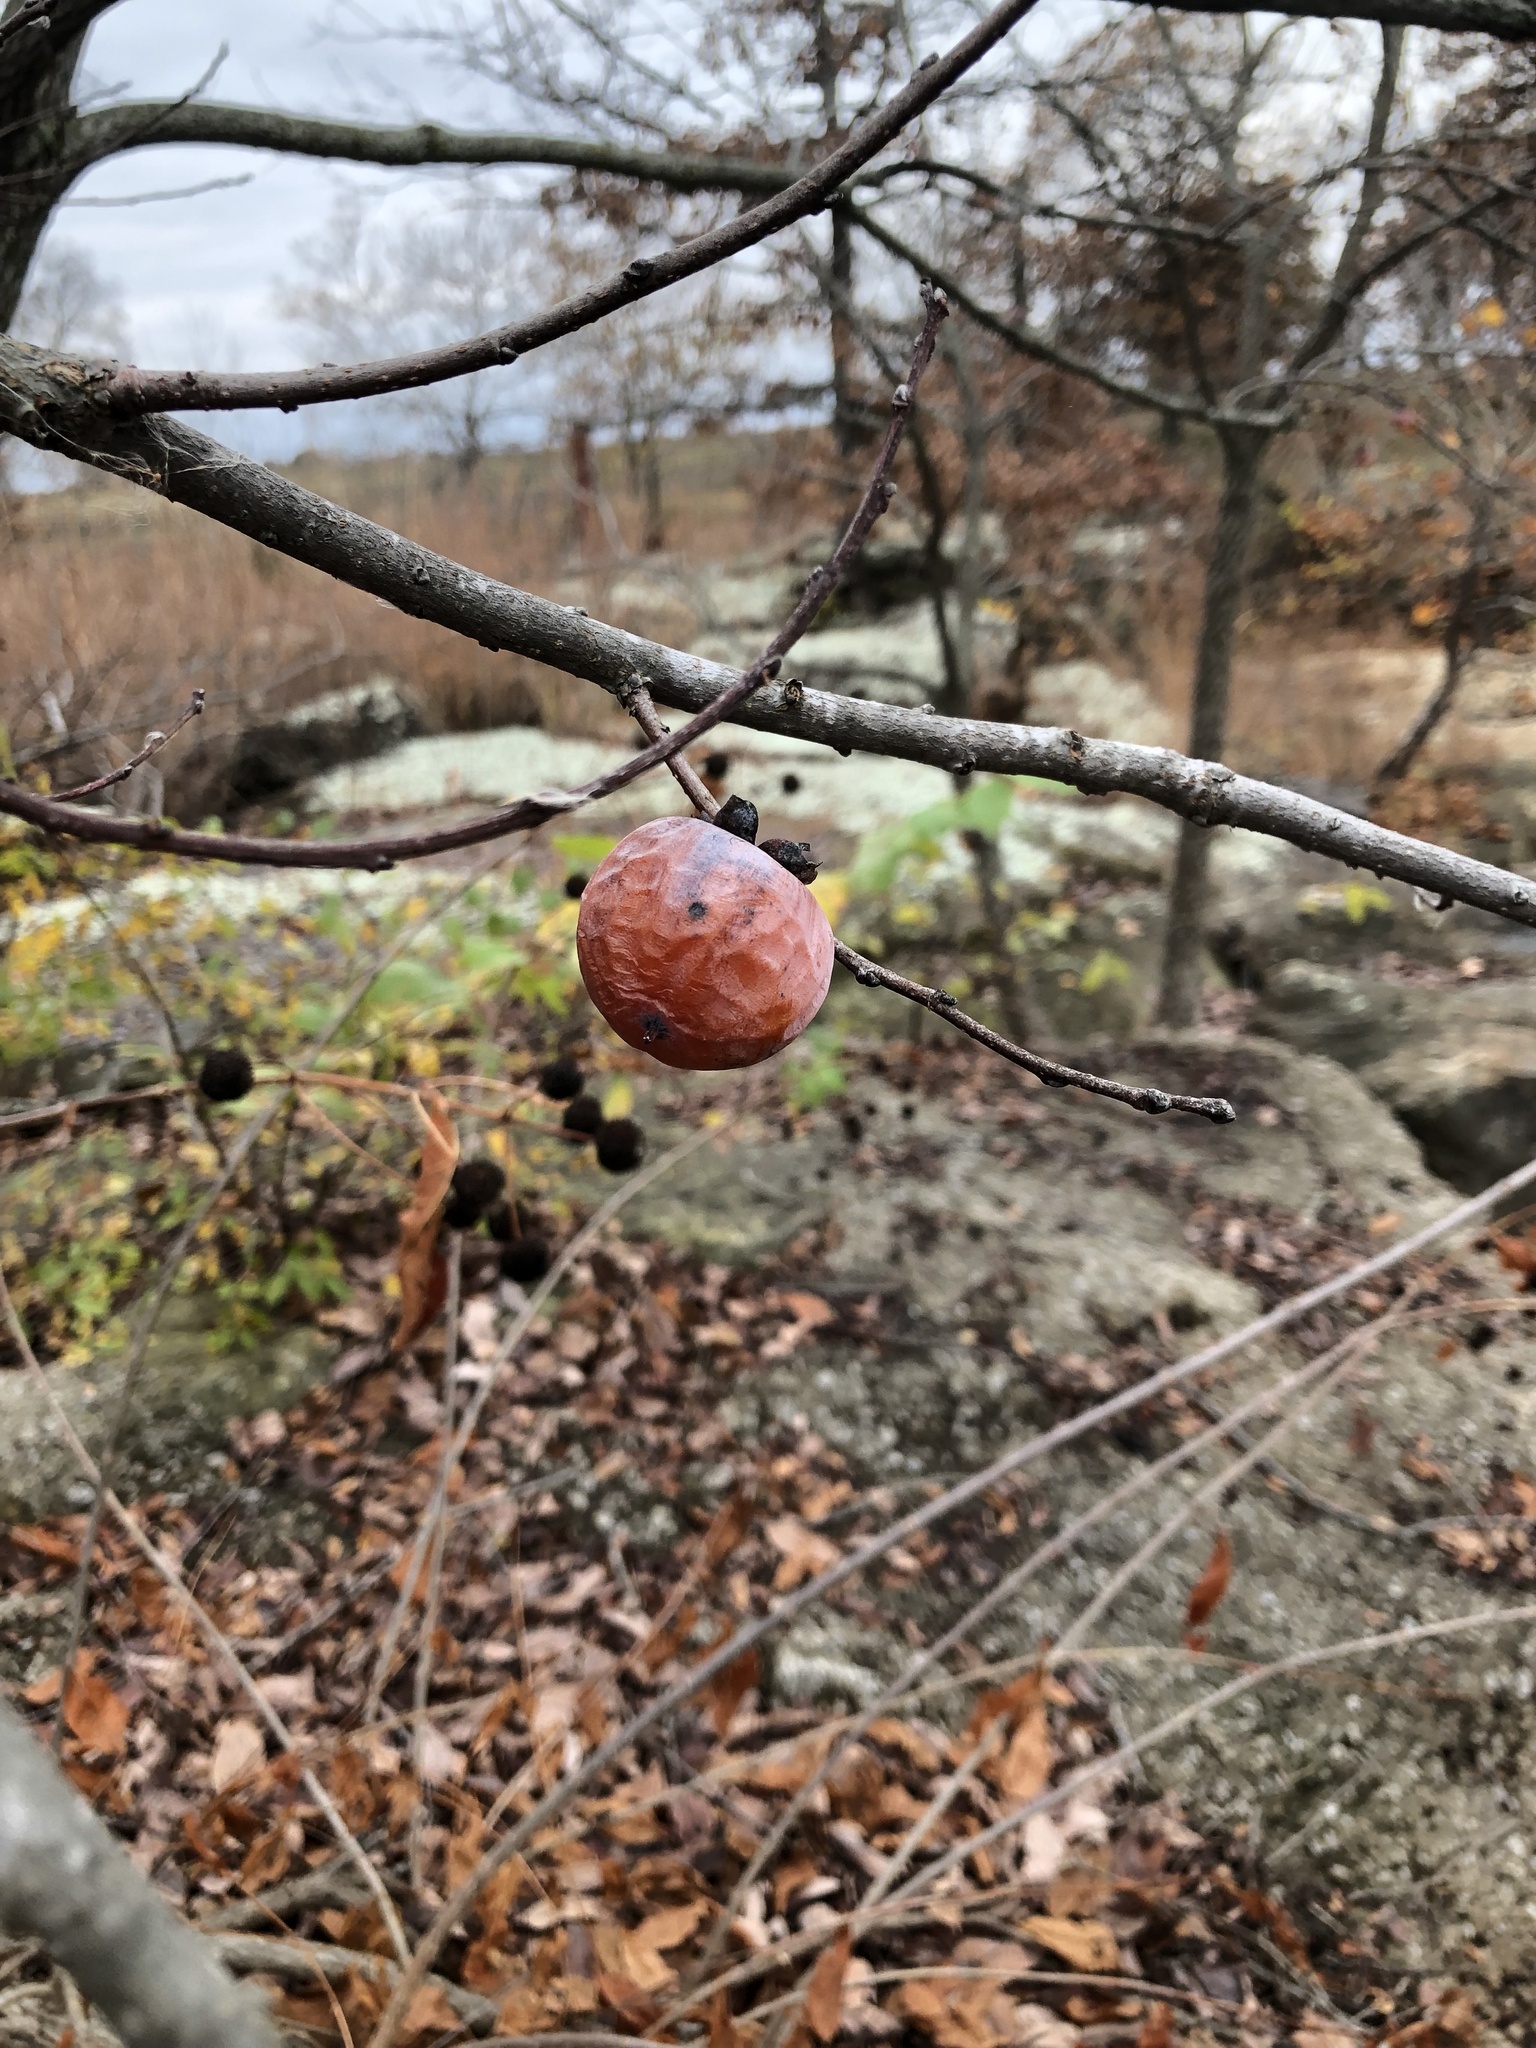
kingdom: Plantae
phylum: Tracheophyta
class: Magnoliopsida
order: Ericales
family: Ebenaceae
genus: Diospyros
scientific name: Diospyros virginiana
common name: Persimmon
